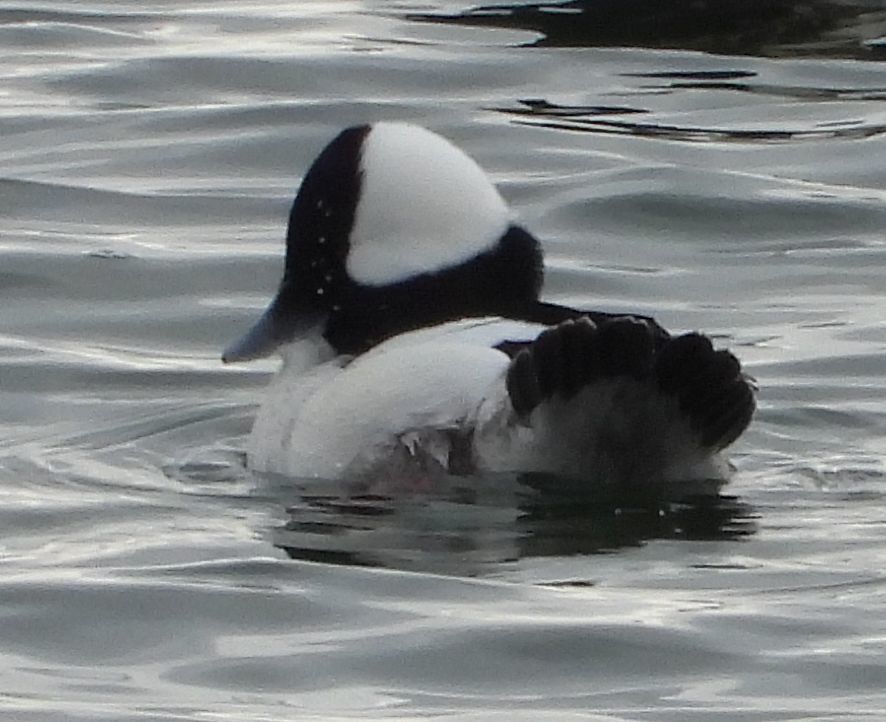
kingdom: Animalia
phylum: Chordata
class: Aves
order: Anseriformes
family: Anatidae
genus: Bucephala
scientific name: Bucephala albeola
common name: Bufflehead
